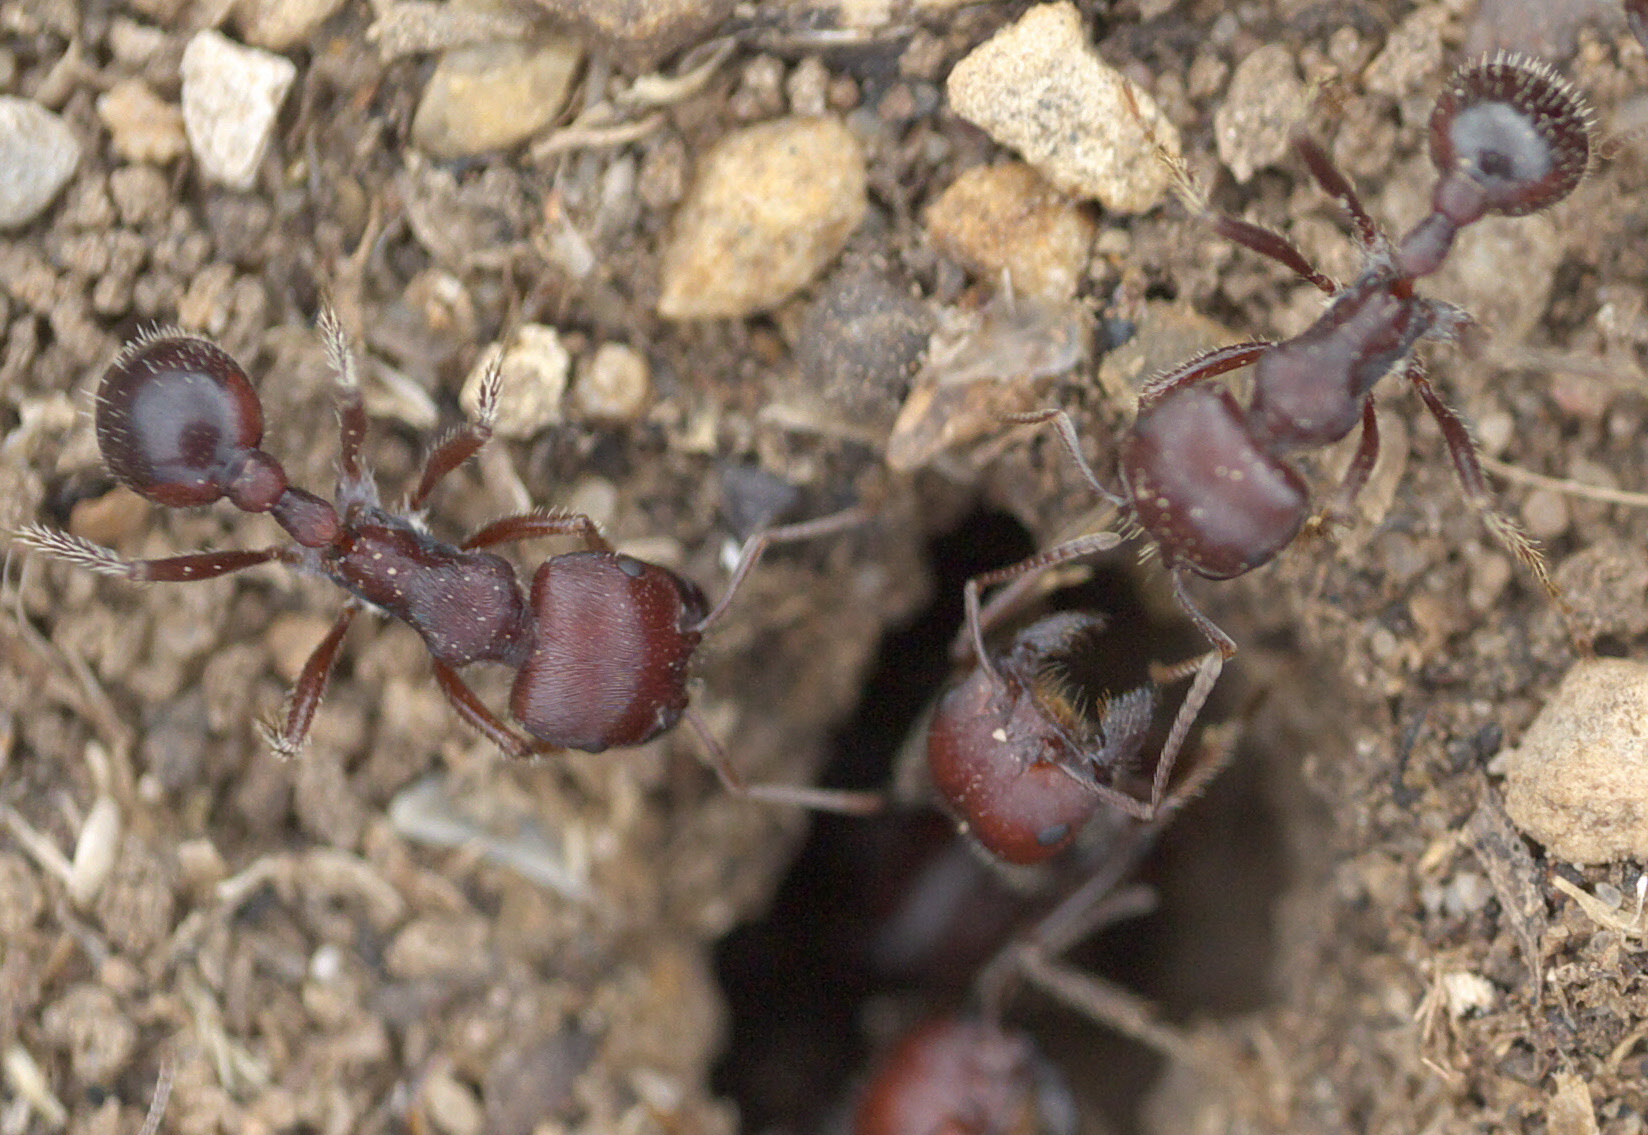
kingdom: Animalia
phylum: Arthropoda
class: Insecta
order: Hymenoptera
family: Formicidae
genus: Pogonomyrmex
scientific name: Pogonomyrmex
